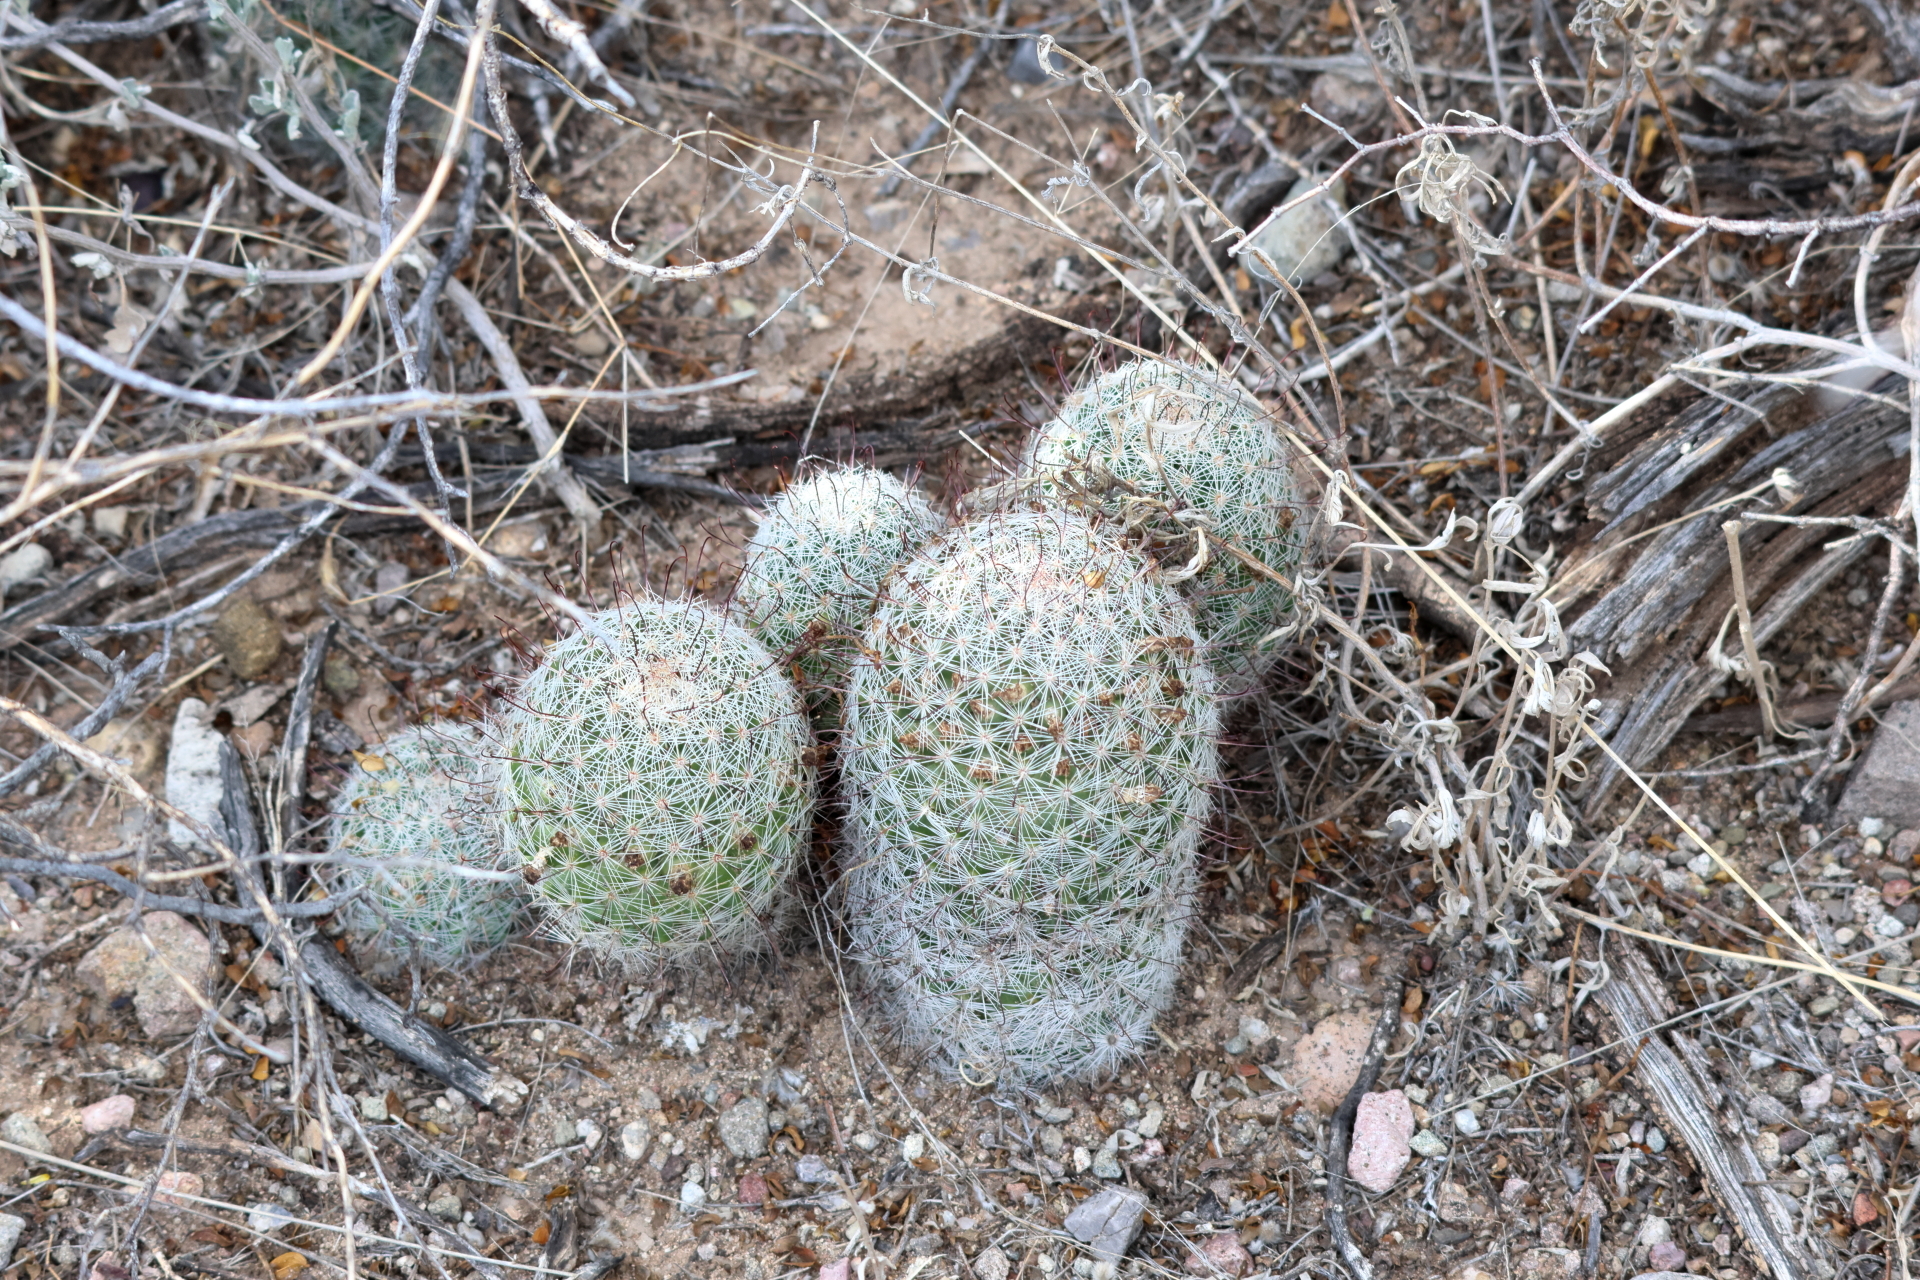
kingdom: Plantae
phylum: Tracheophyta
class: Magnoliopsida
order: Caryophyllales
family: Cactaceae
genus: Cochemiea
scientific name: Cochemiea grahamii
